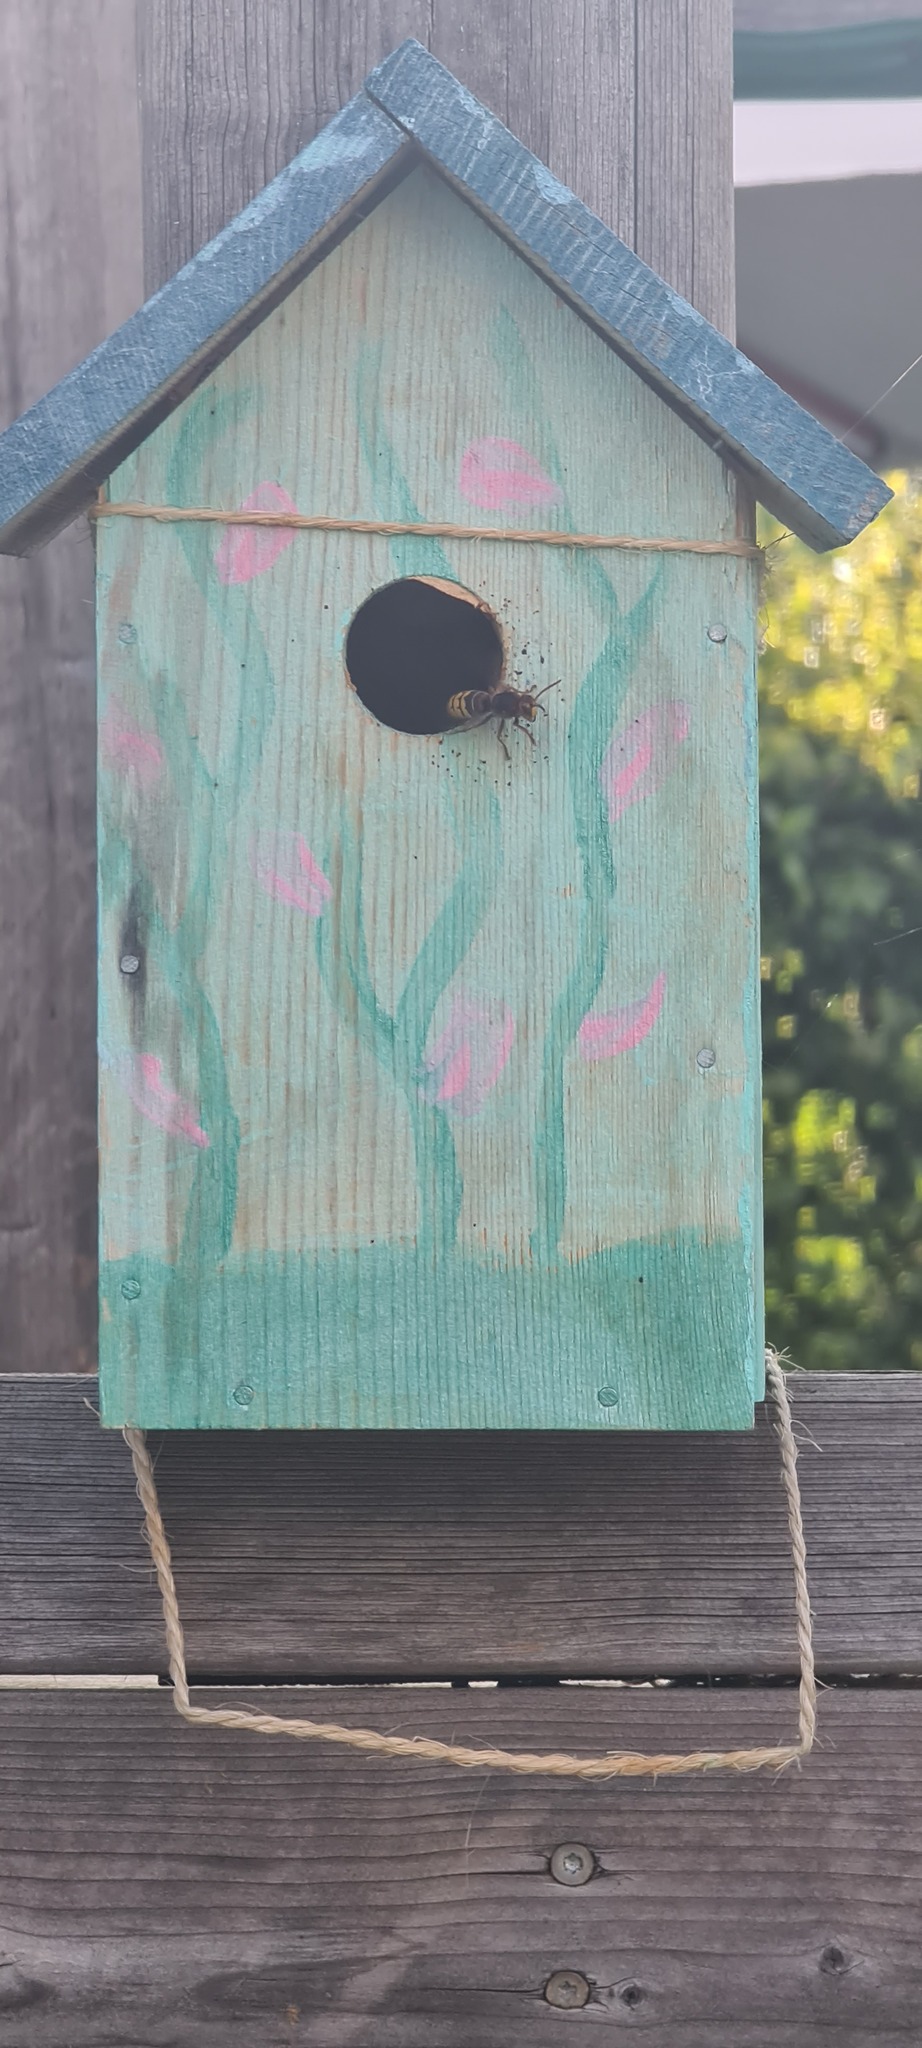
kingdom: Animalia
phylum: Arthropoda
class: Insecta
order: Hymenoptera
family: Vespidae
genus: Vespa
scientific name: Vespa crabro
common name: Hornet
